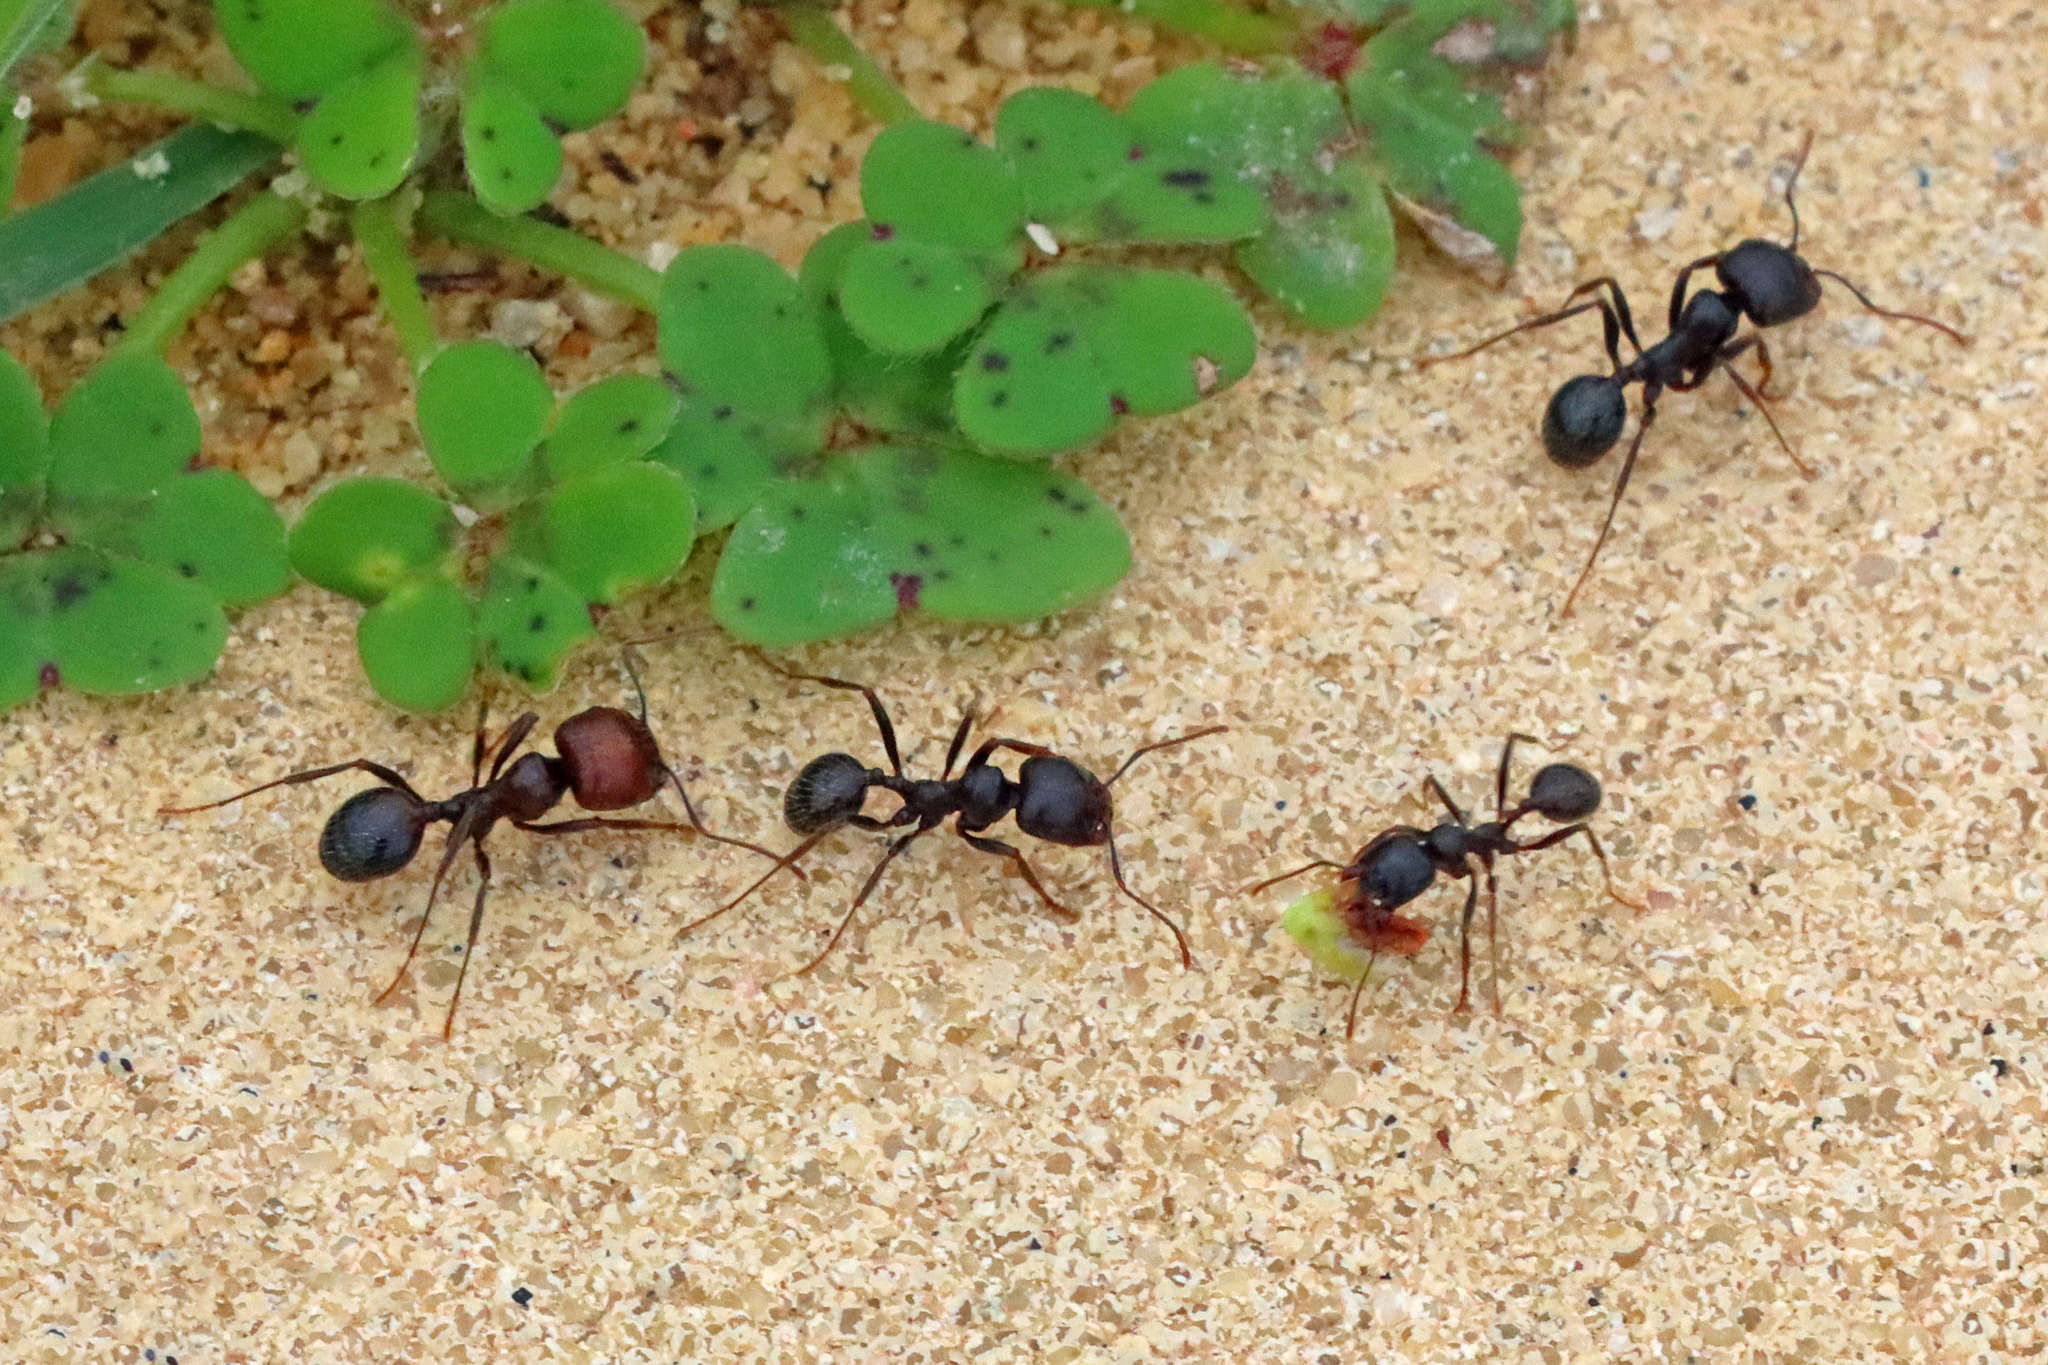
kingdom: Animalia
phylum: Arthropoda
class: Insecta
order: Hymenoptera
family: Formicidae
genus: Messor
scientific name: Messor barbarus
